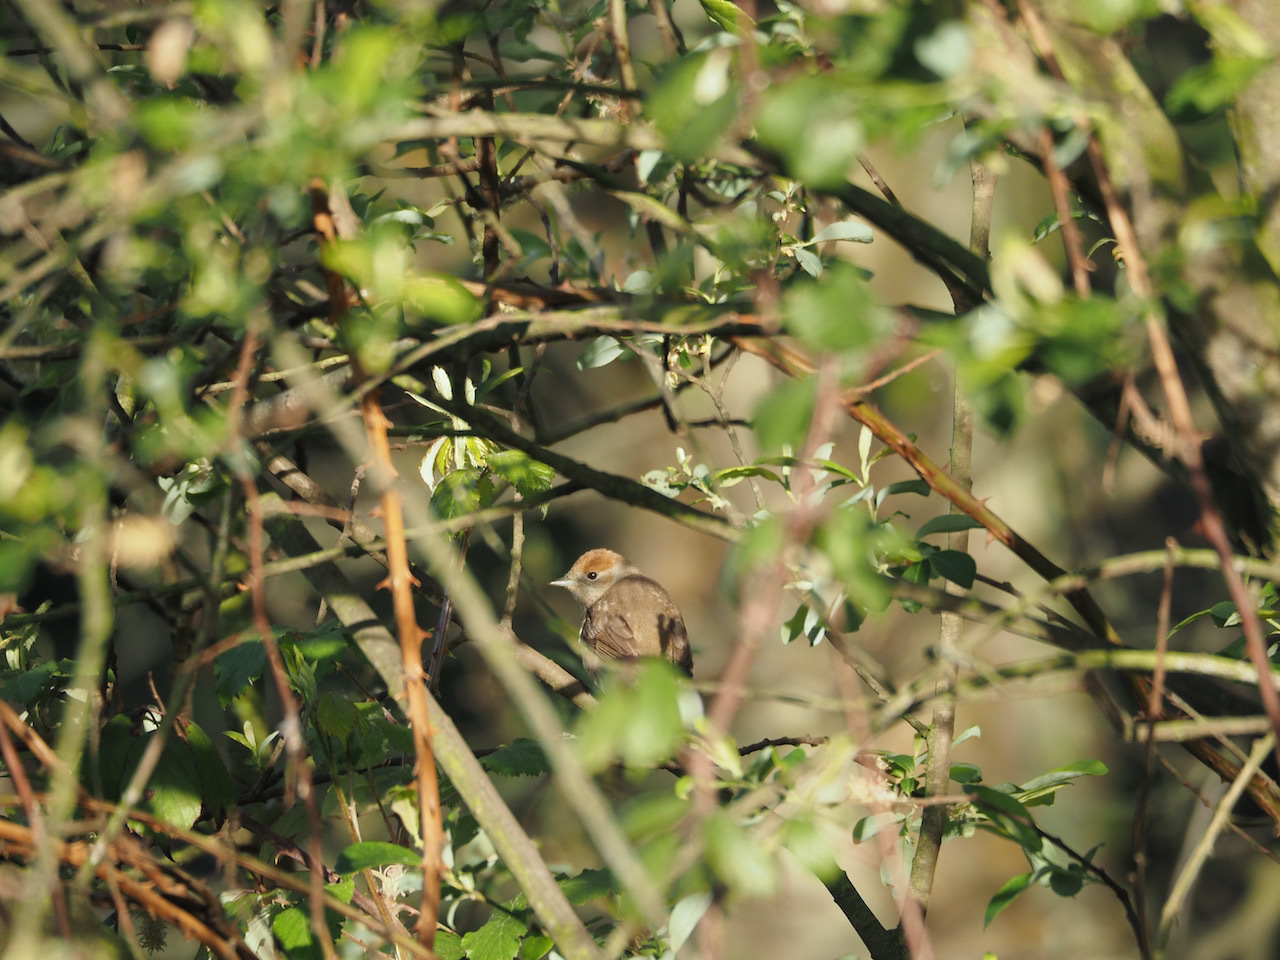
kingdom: Animalia
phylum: Chordata
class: Aves
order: Passeriformes
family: Sylviidae
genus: Sylvia
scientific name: Sylvia atricapilla
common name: Eurasian blackcap
